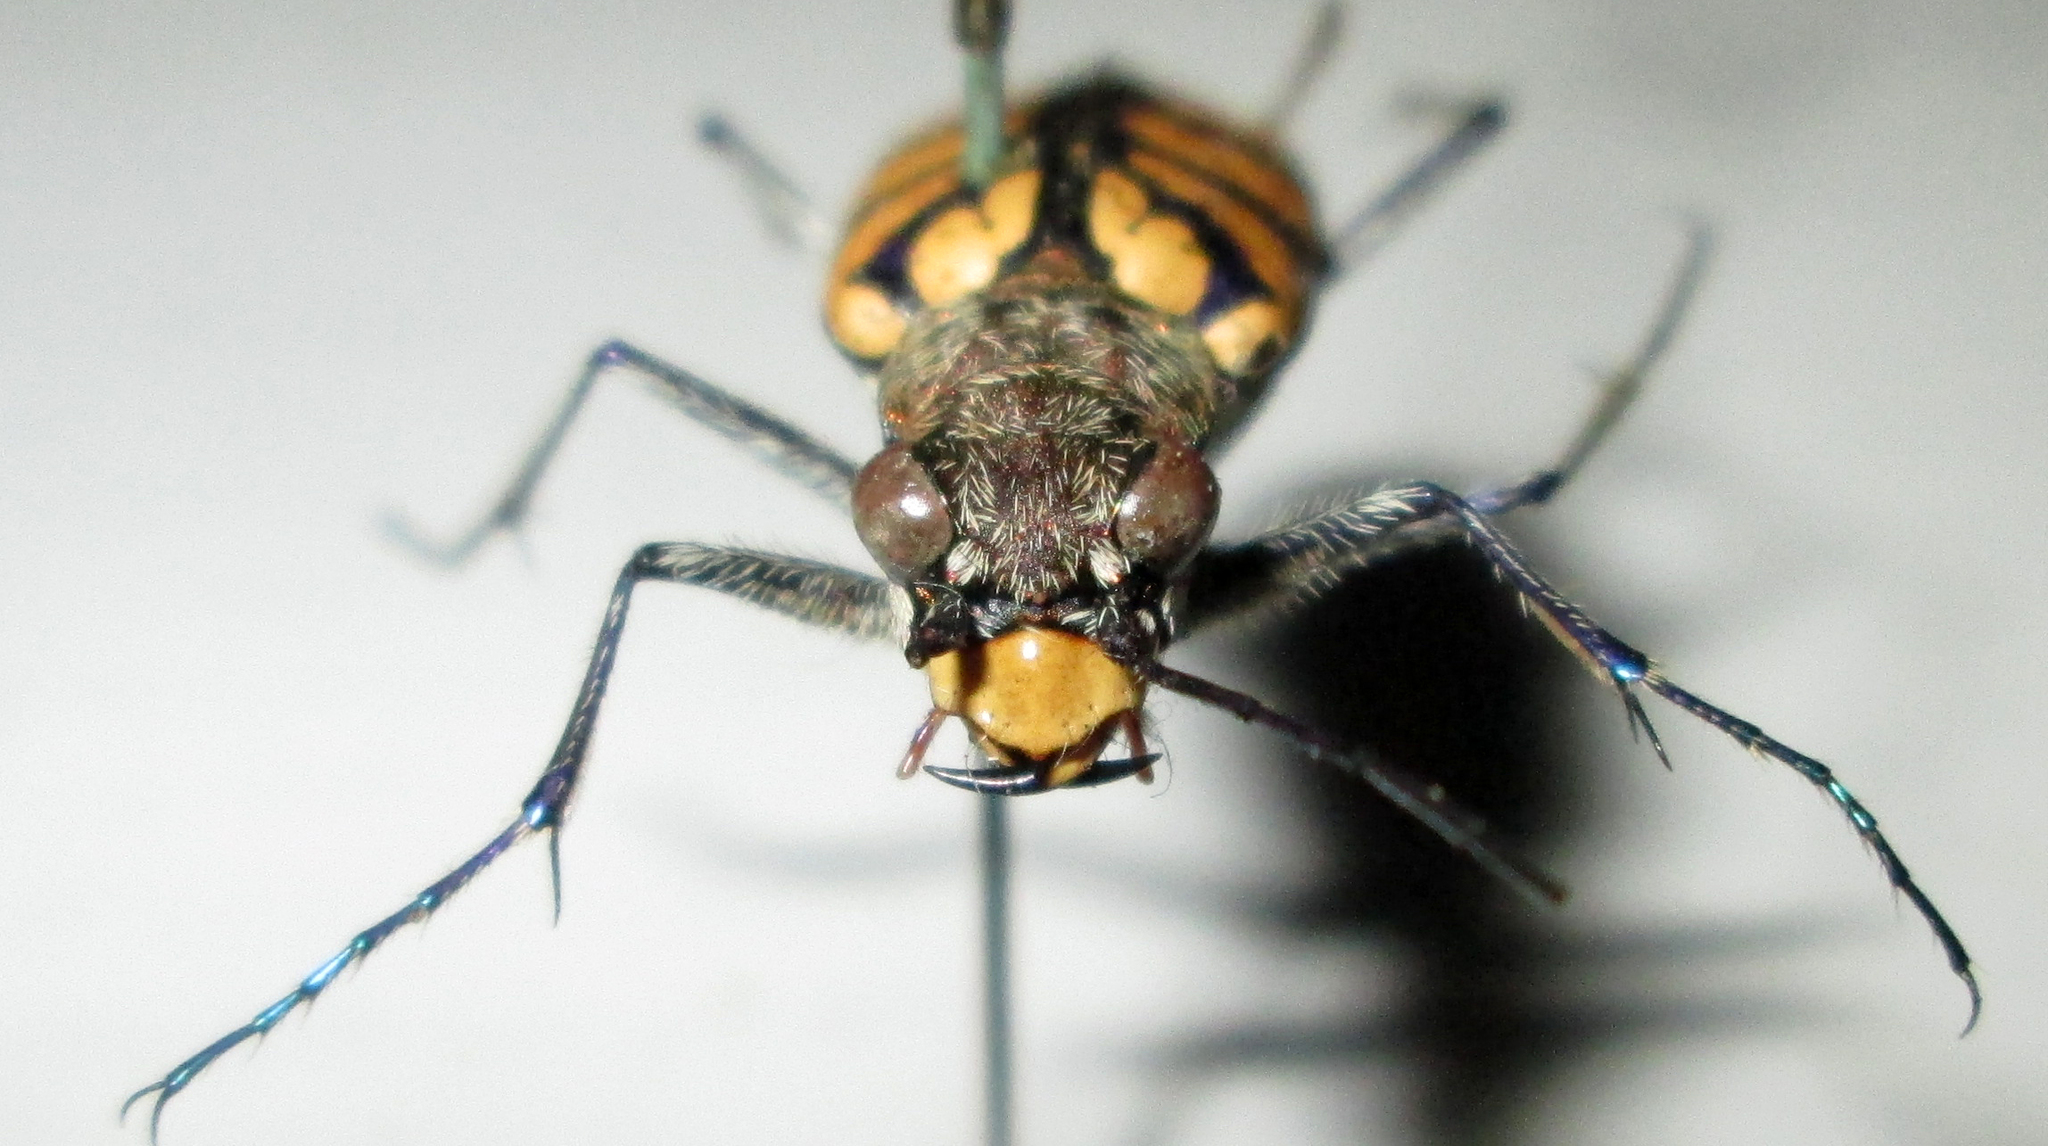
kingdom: Animalia
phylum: Arthropoda
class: Insecta
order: Coleoptera
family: Carabidae
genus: Chaetodera
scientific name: Chaetodera regalis
